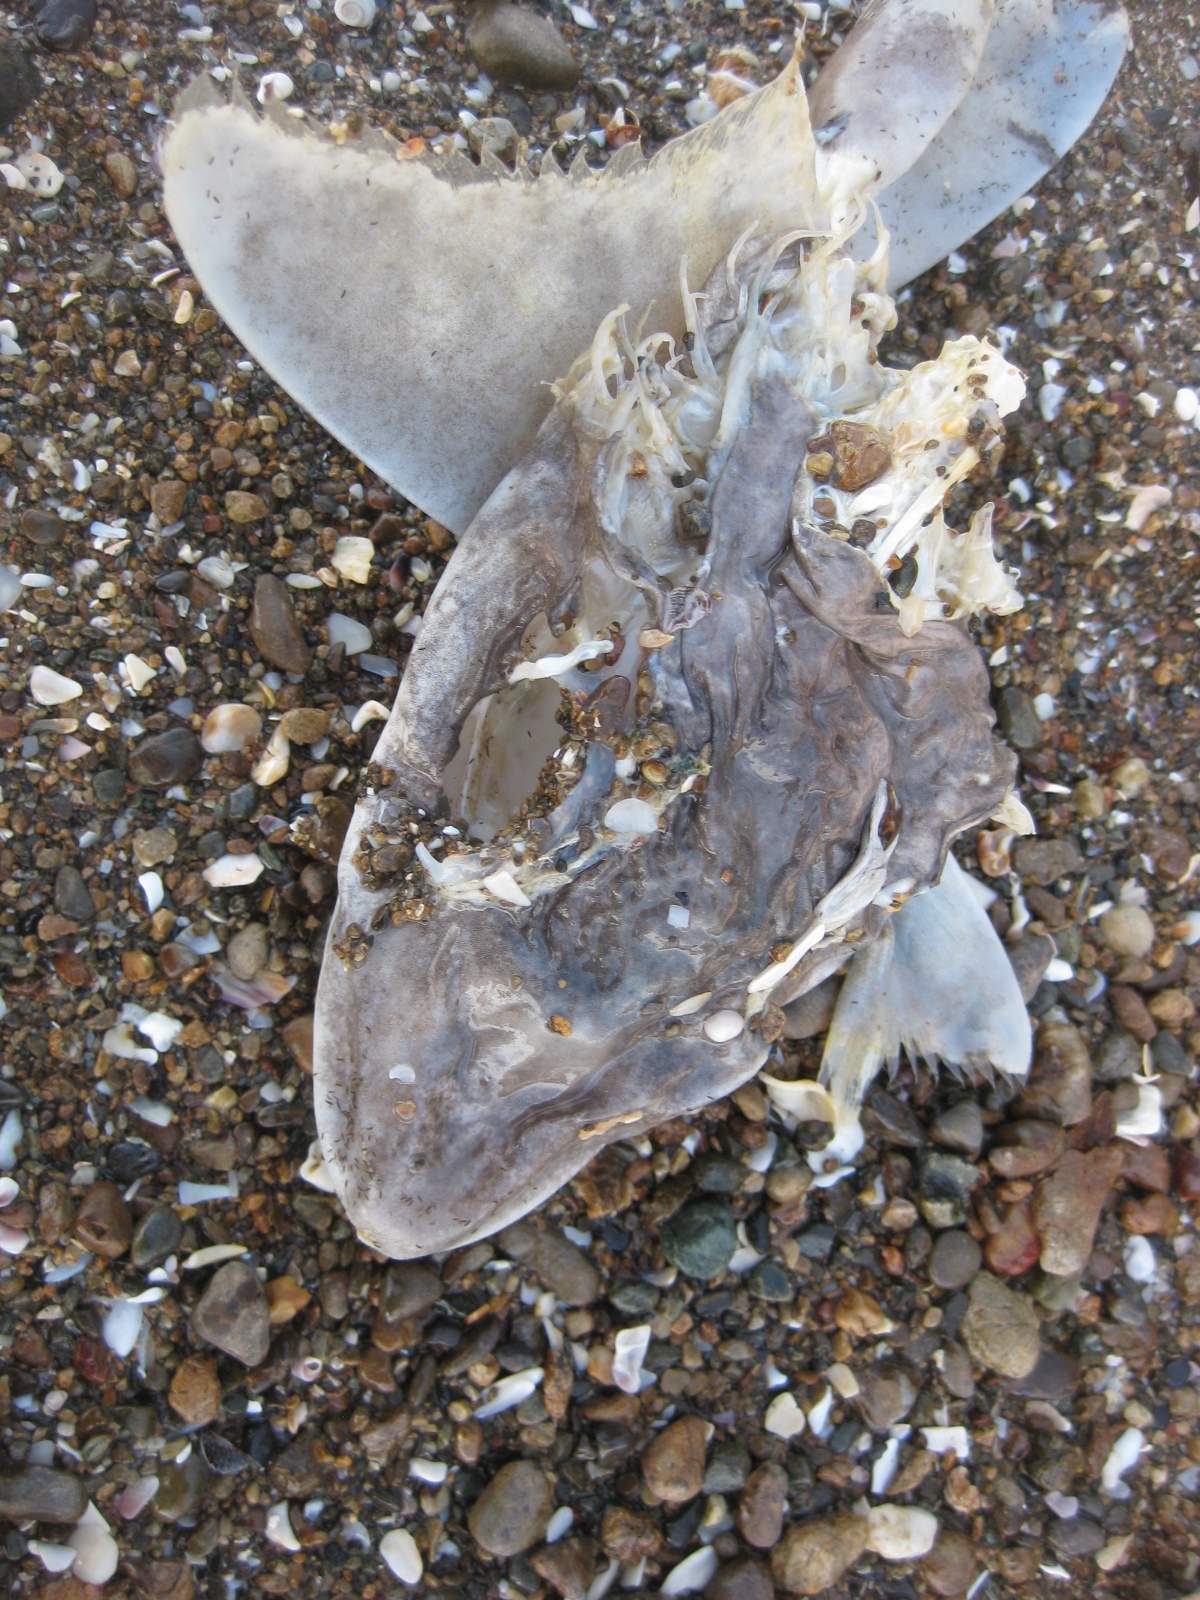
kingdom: Animalia
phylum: Chordata
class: Elasmobranchii
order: Carcharhiniformes
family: Triakidae
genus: Mustelus
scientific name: Mustelus lenticulatus
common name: Gummy shark
